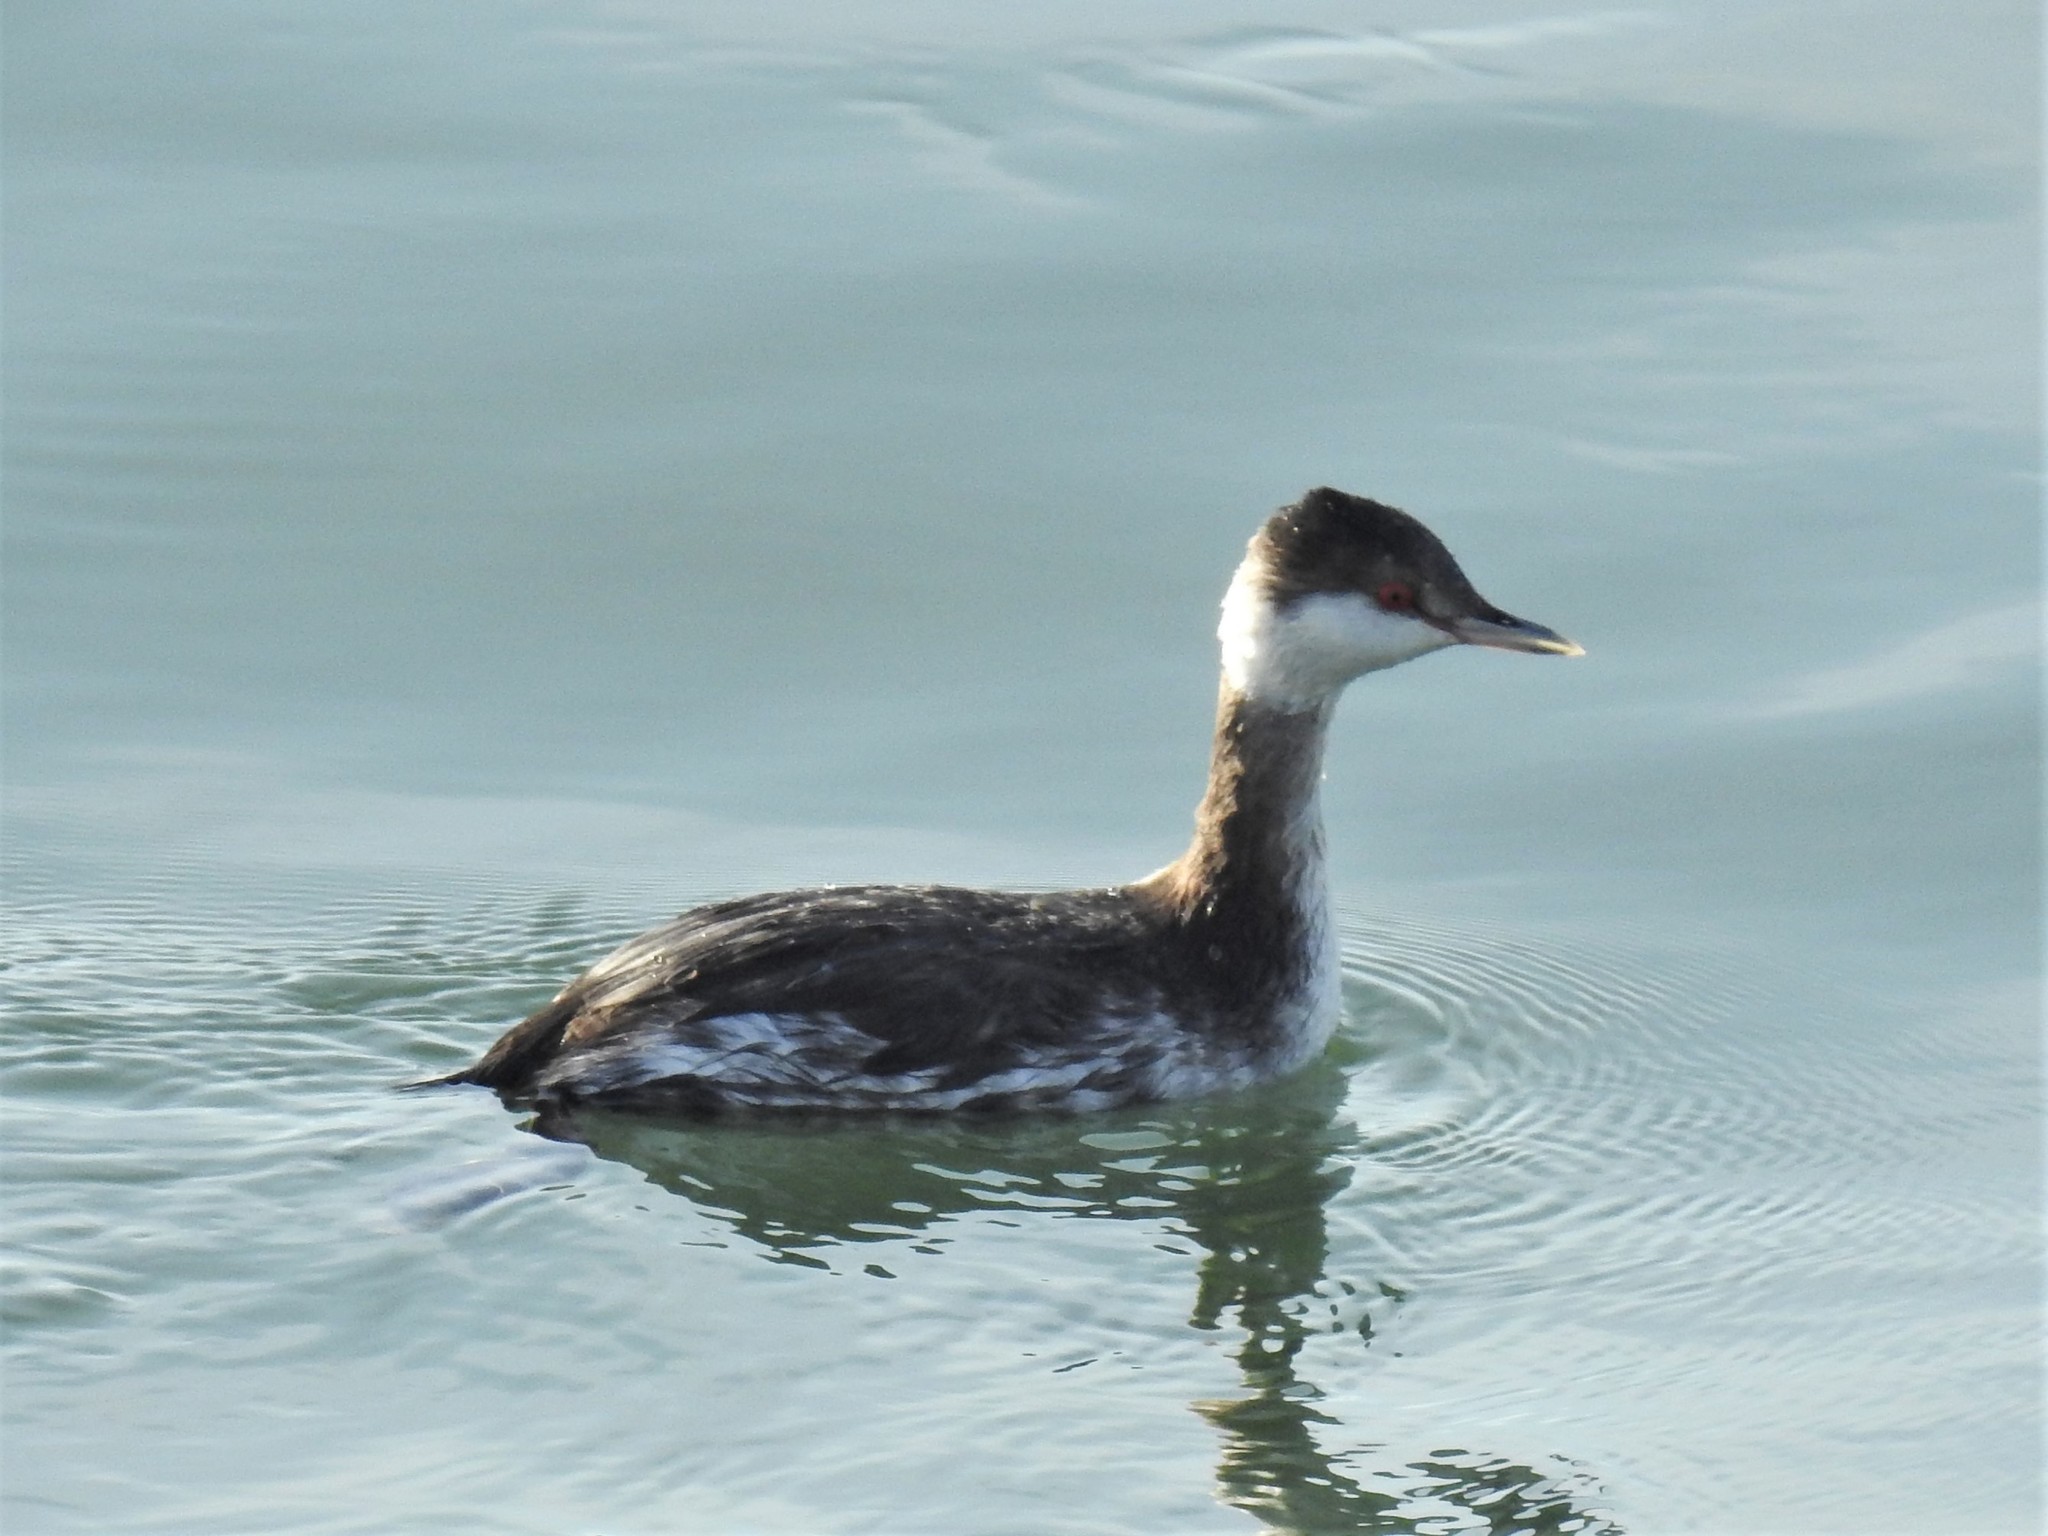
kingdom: Animalia
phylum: Chordata
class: Aves
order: Podicipediformes
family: Podicipedidae
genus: Podiceps
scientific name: Podiceps auritus
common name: Horned grebe
